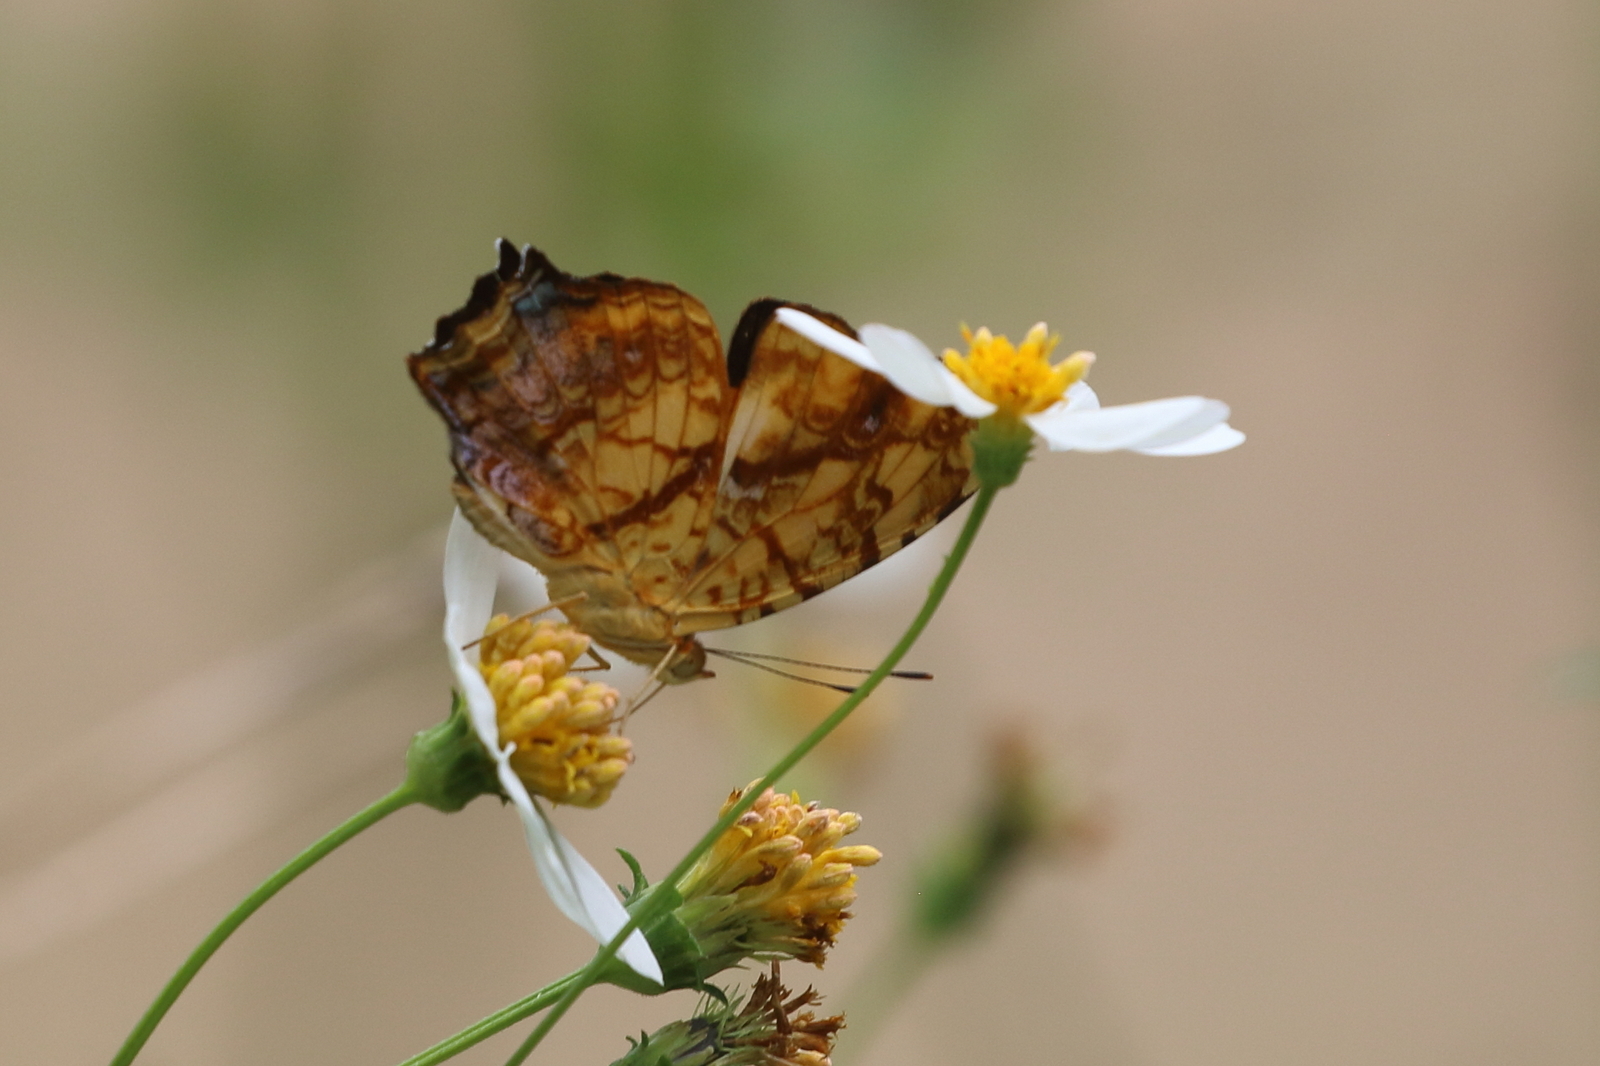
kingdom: Animalia
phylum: Arthropoda
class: Insecta
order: Lepidoptera
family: Nymphalidae
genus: Symbrenthia
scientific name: Symbrenthia hypselis
